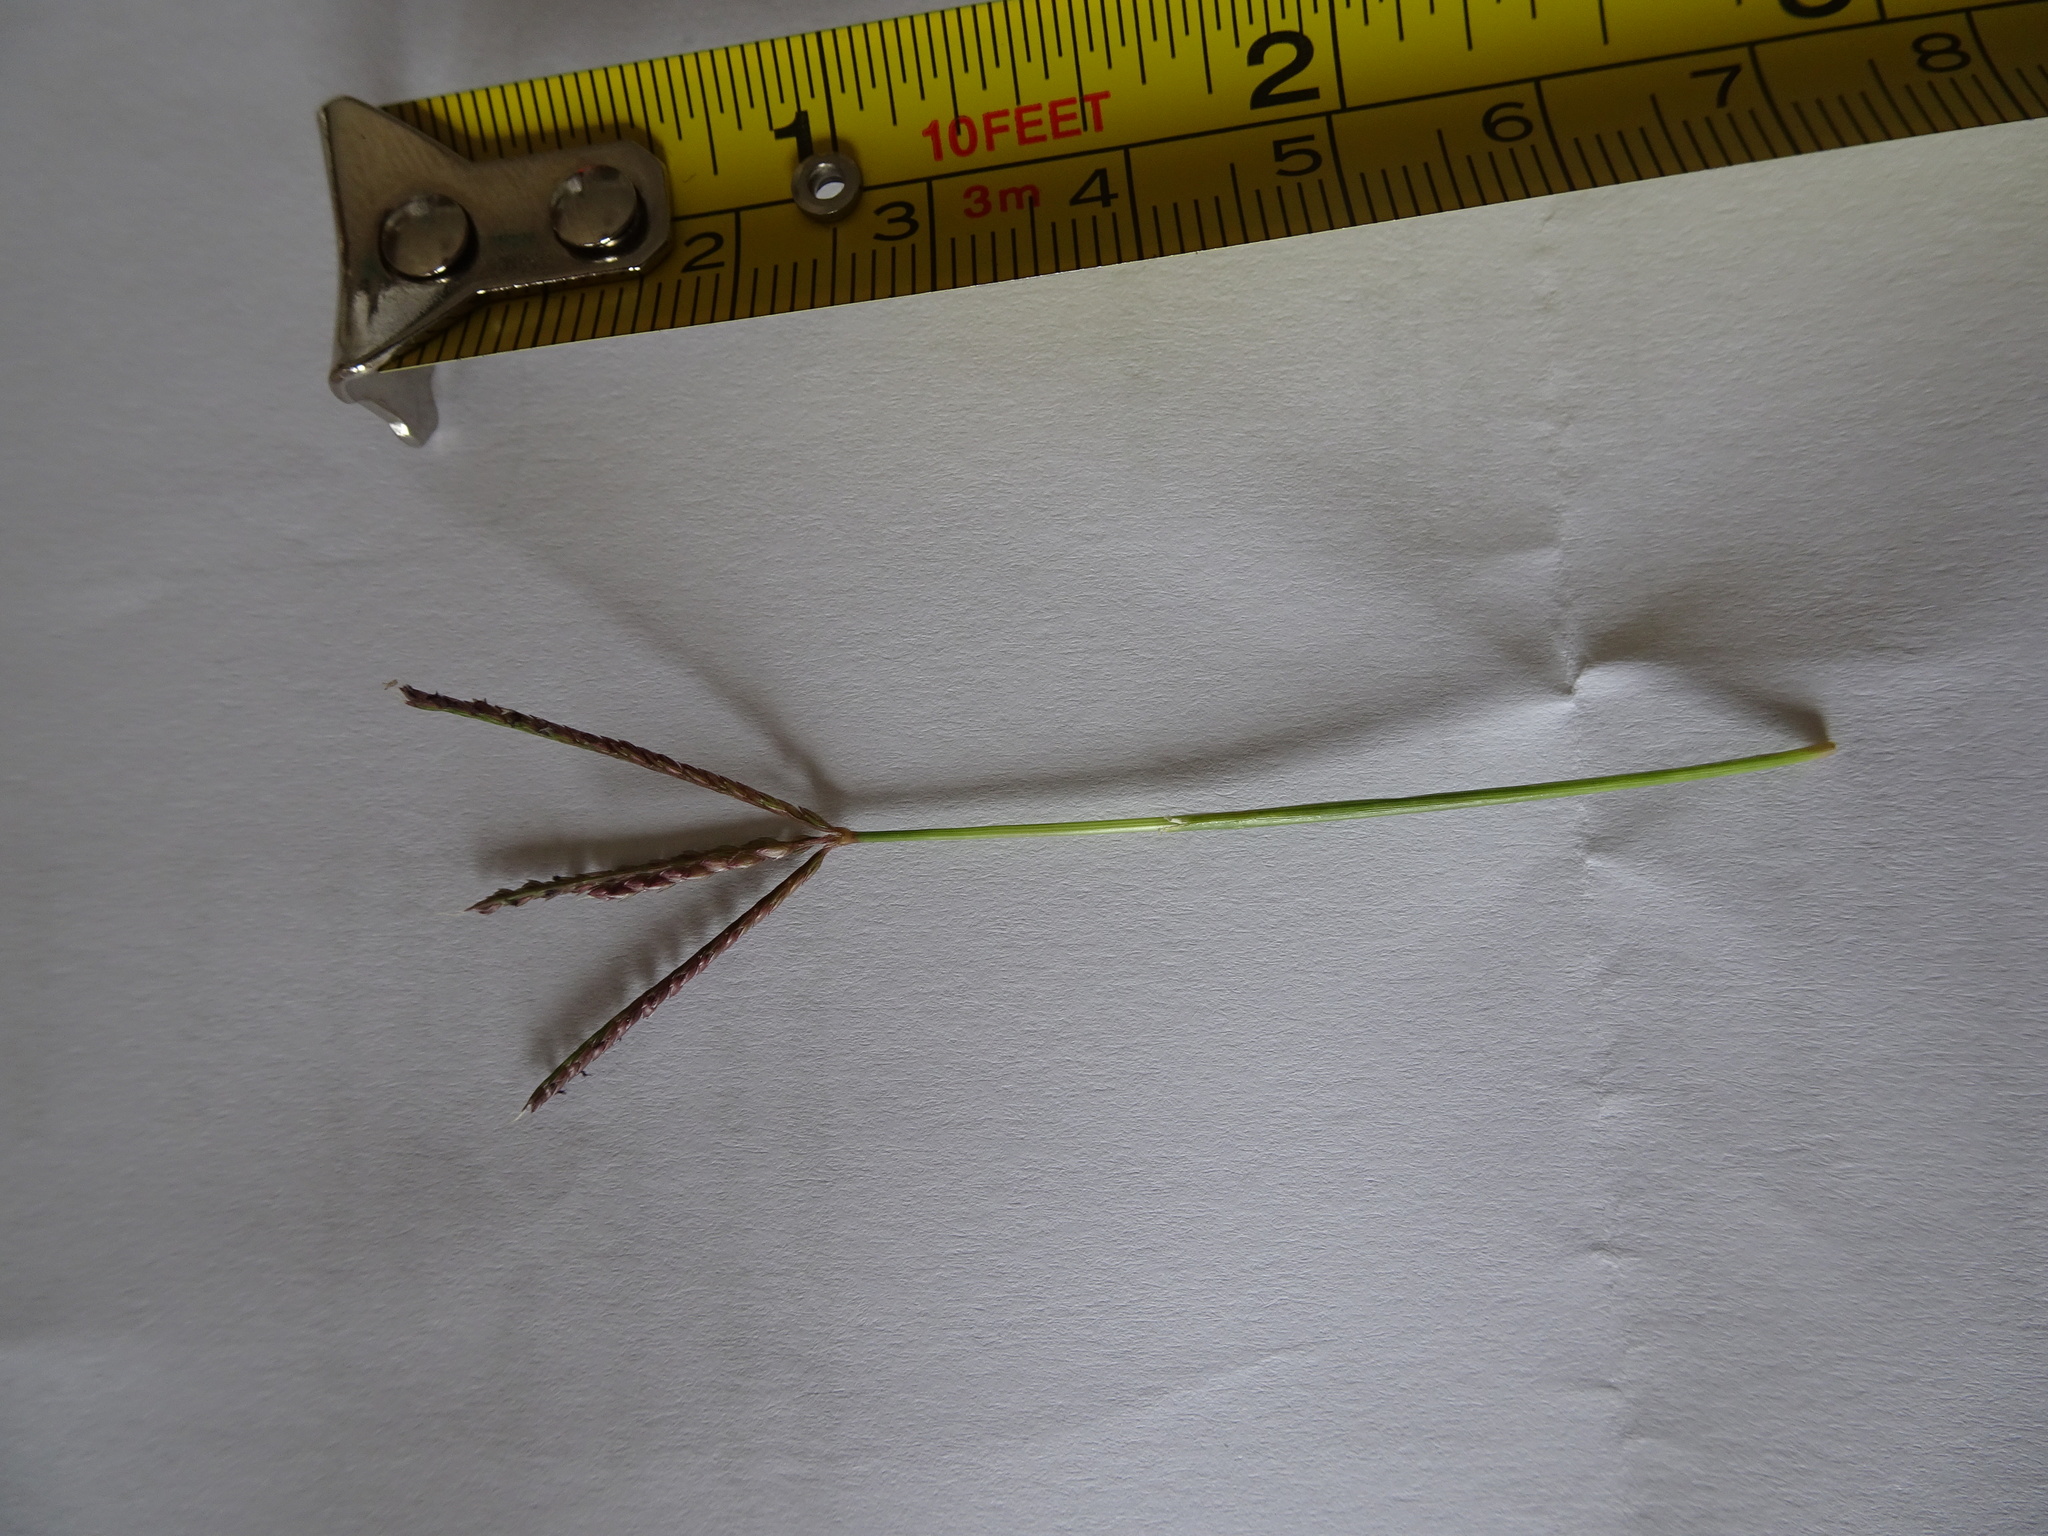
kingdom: Plantae
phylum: Tracheophyta
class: Liliopsida
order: Poales
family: Poaceae
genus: Cynodon
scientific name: Cynodon dactylon
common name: Bermuda grass
